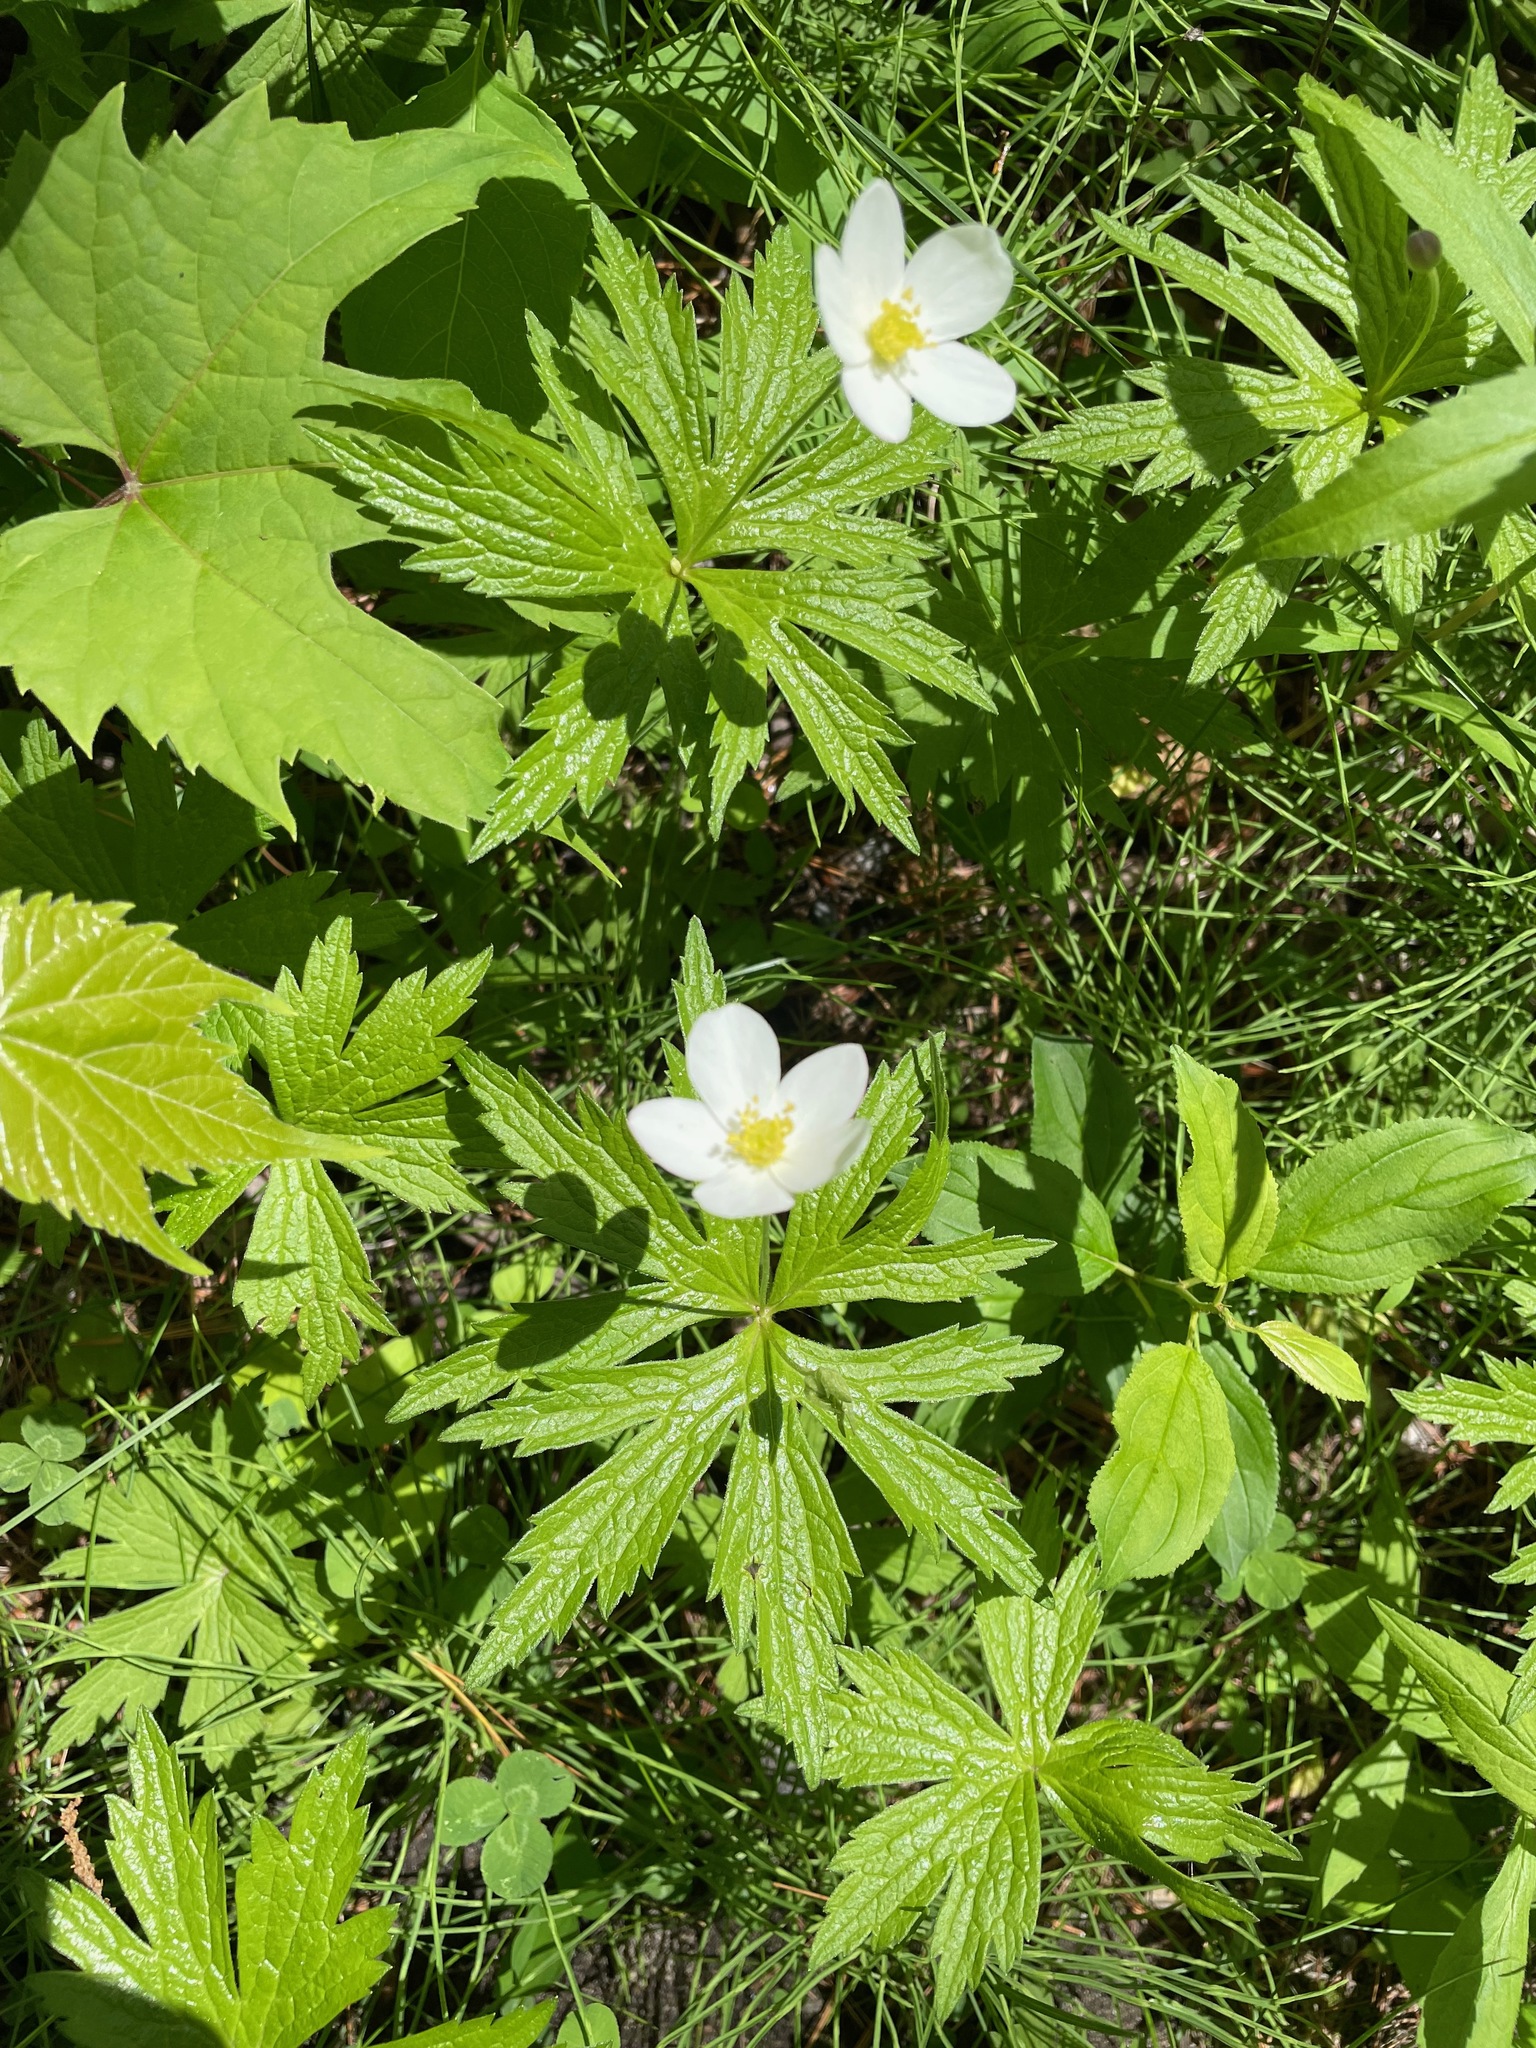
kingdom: Plantae
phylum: Tracheophyta
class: Magnoliopsida
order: Ranunculales
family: Ranunculaceae
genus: Anemonastrum
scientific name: Anemonastrum canadense
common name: Canada anemone
